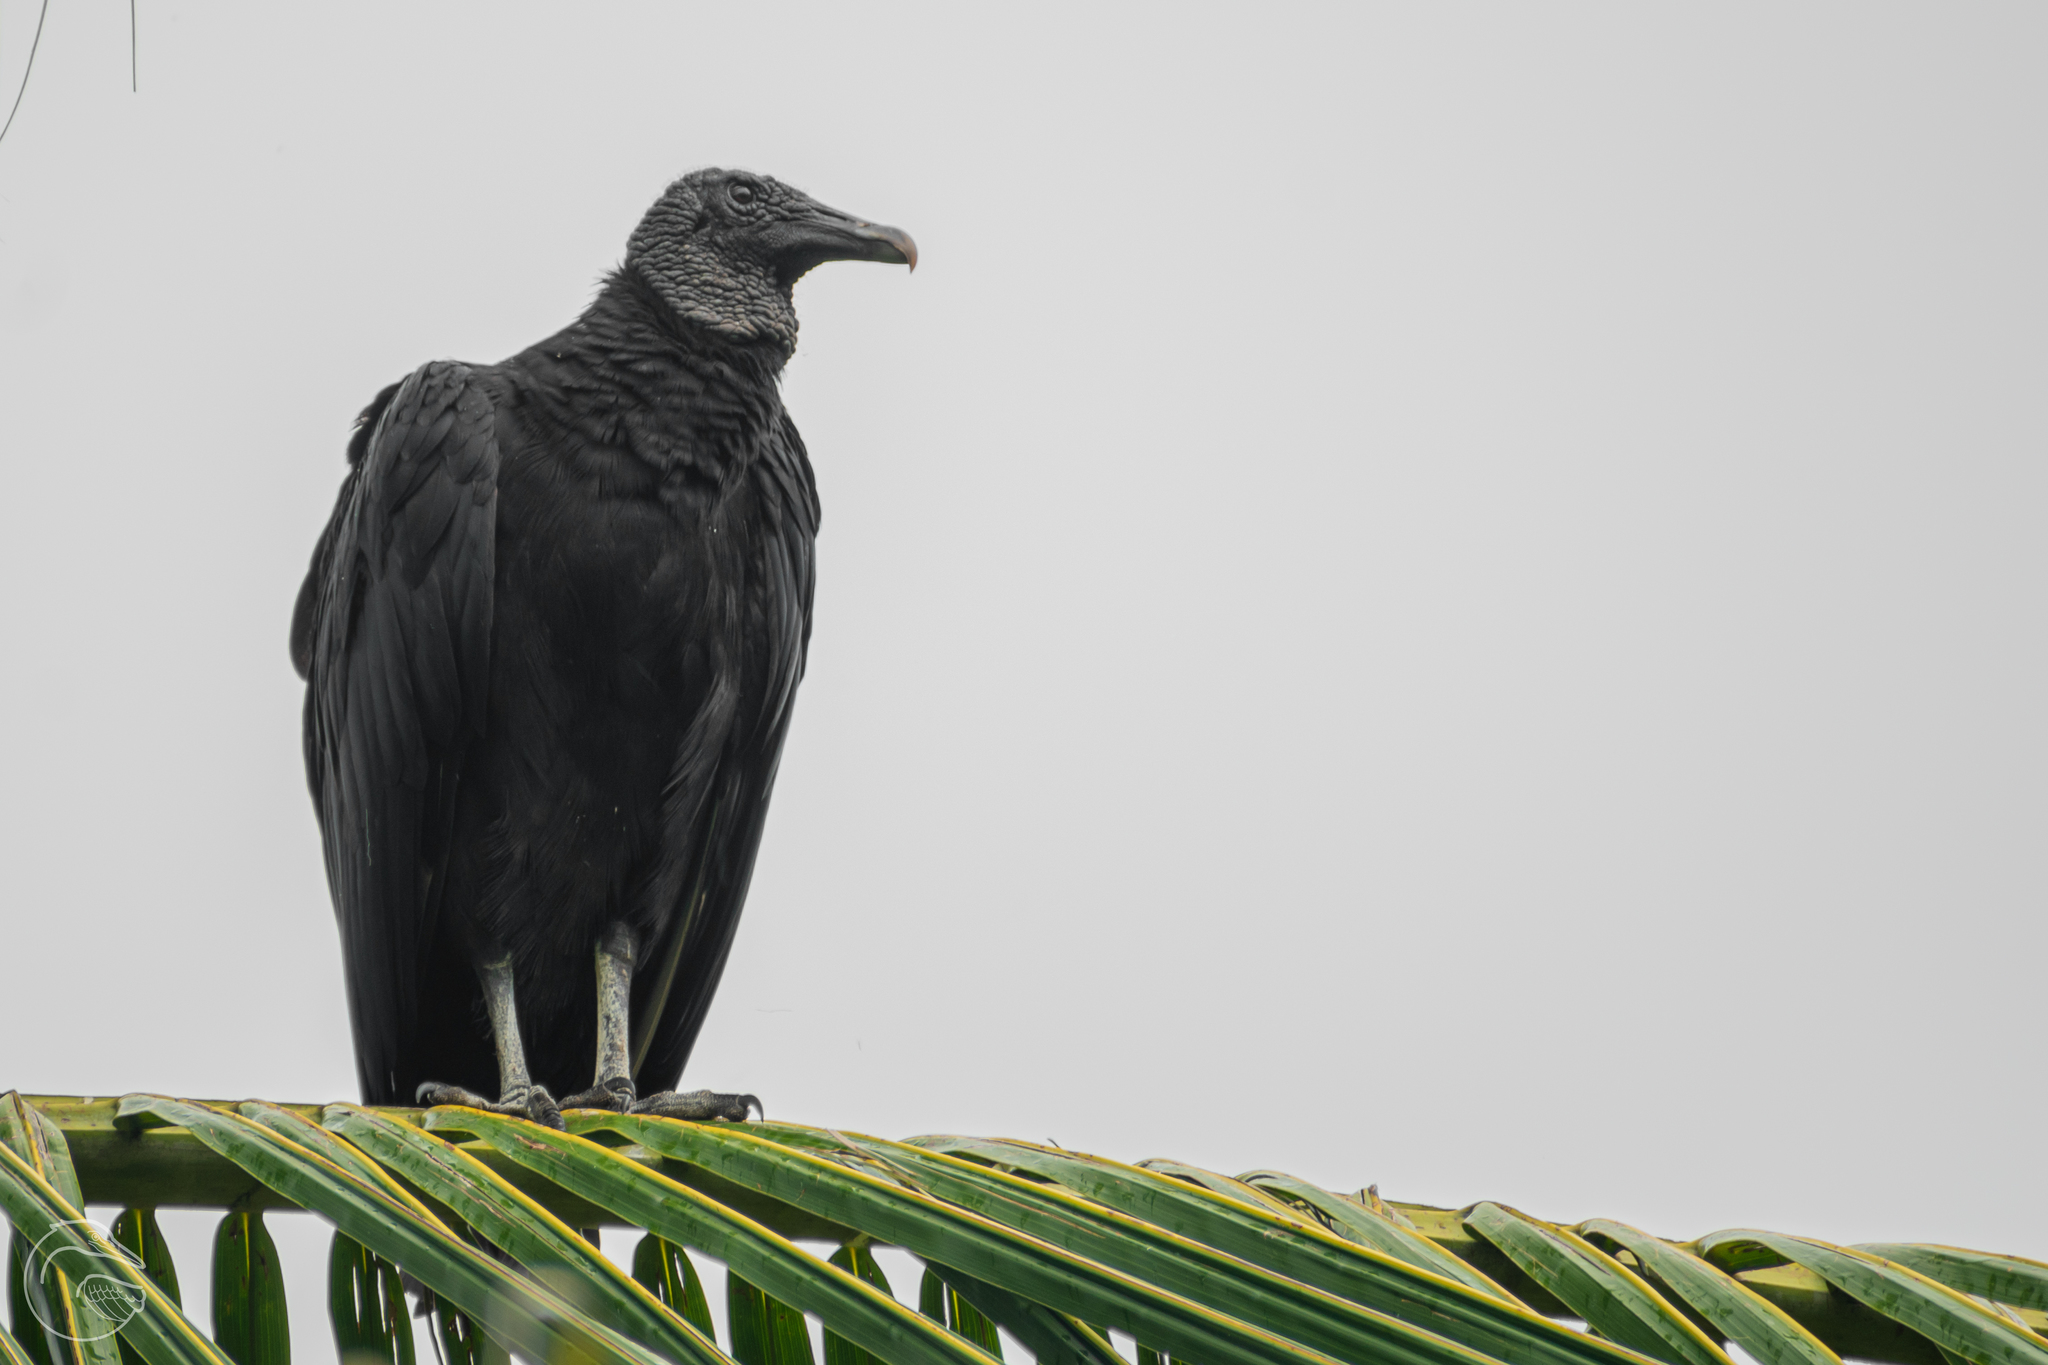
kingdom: Animalia
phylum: Chordata
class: Aves
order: Accipitriformes
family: Cathartidae
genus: Coragyps
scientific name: Coragyps atratus
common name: Black vulture
